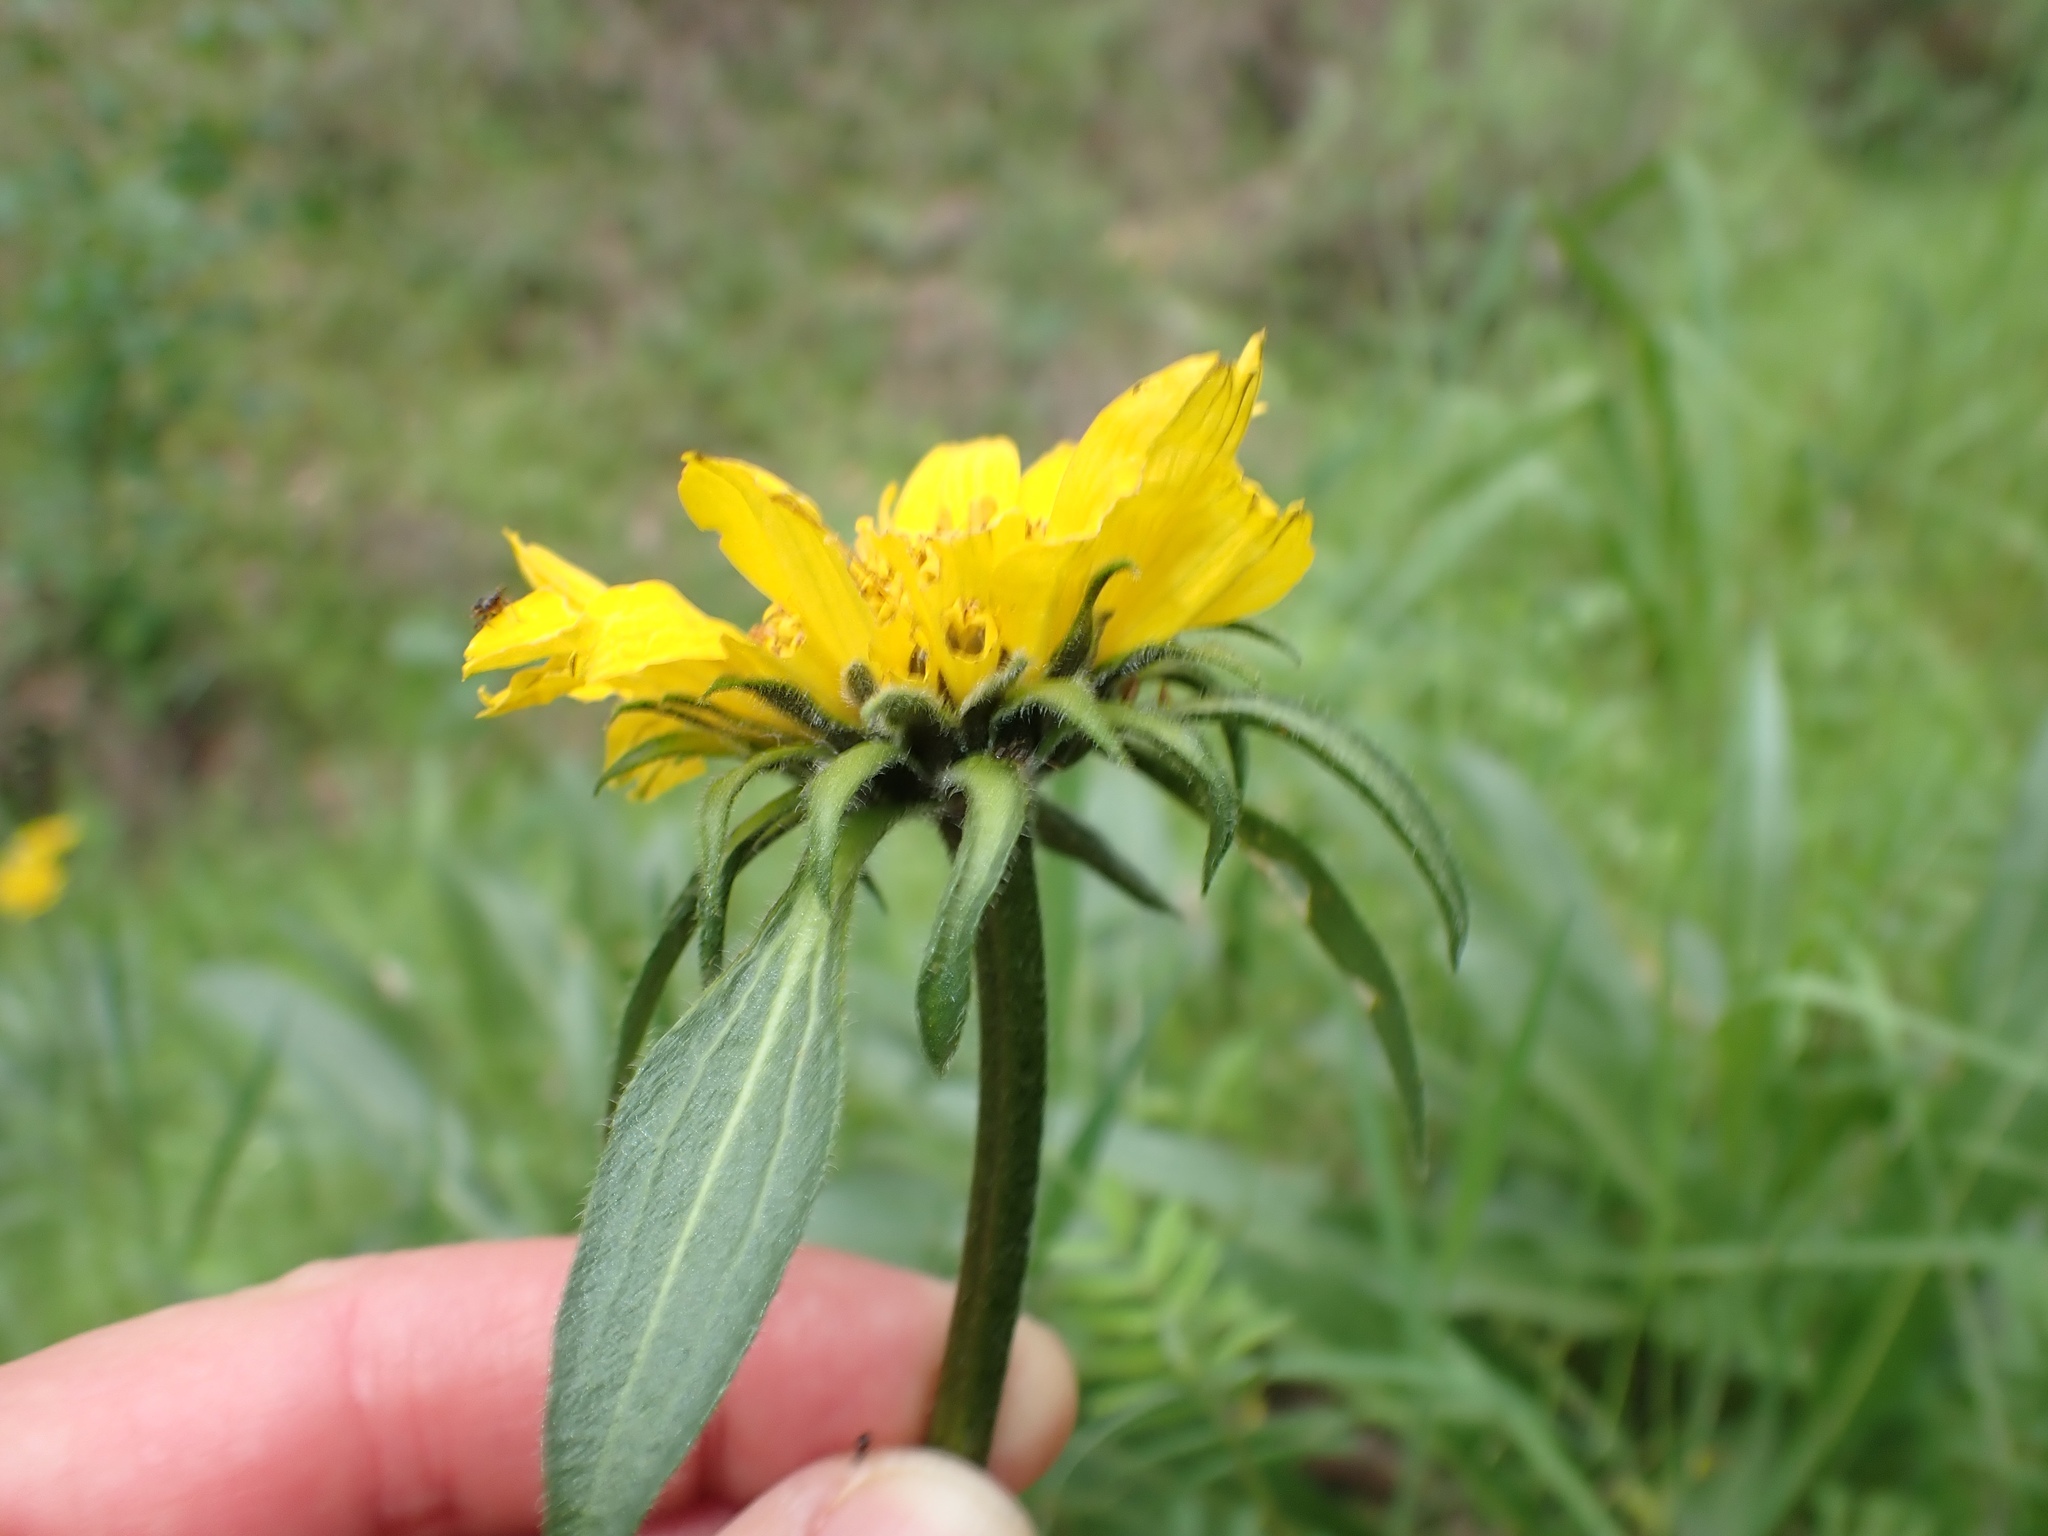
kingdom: Plantae
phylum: Tracheophyta
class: Magnoliopsida
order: Asterales
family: Asteraceae
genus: Helianthella
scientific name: Helianthella castanea
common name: Diablo helianthella
